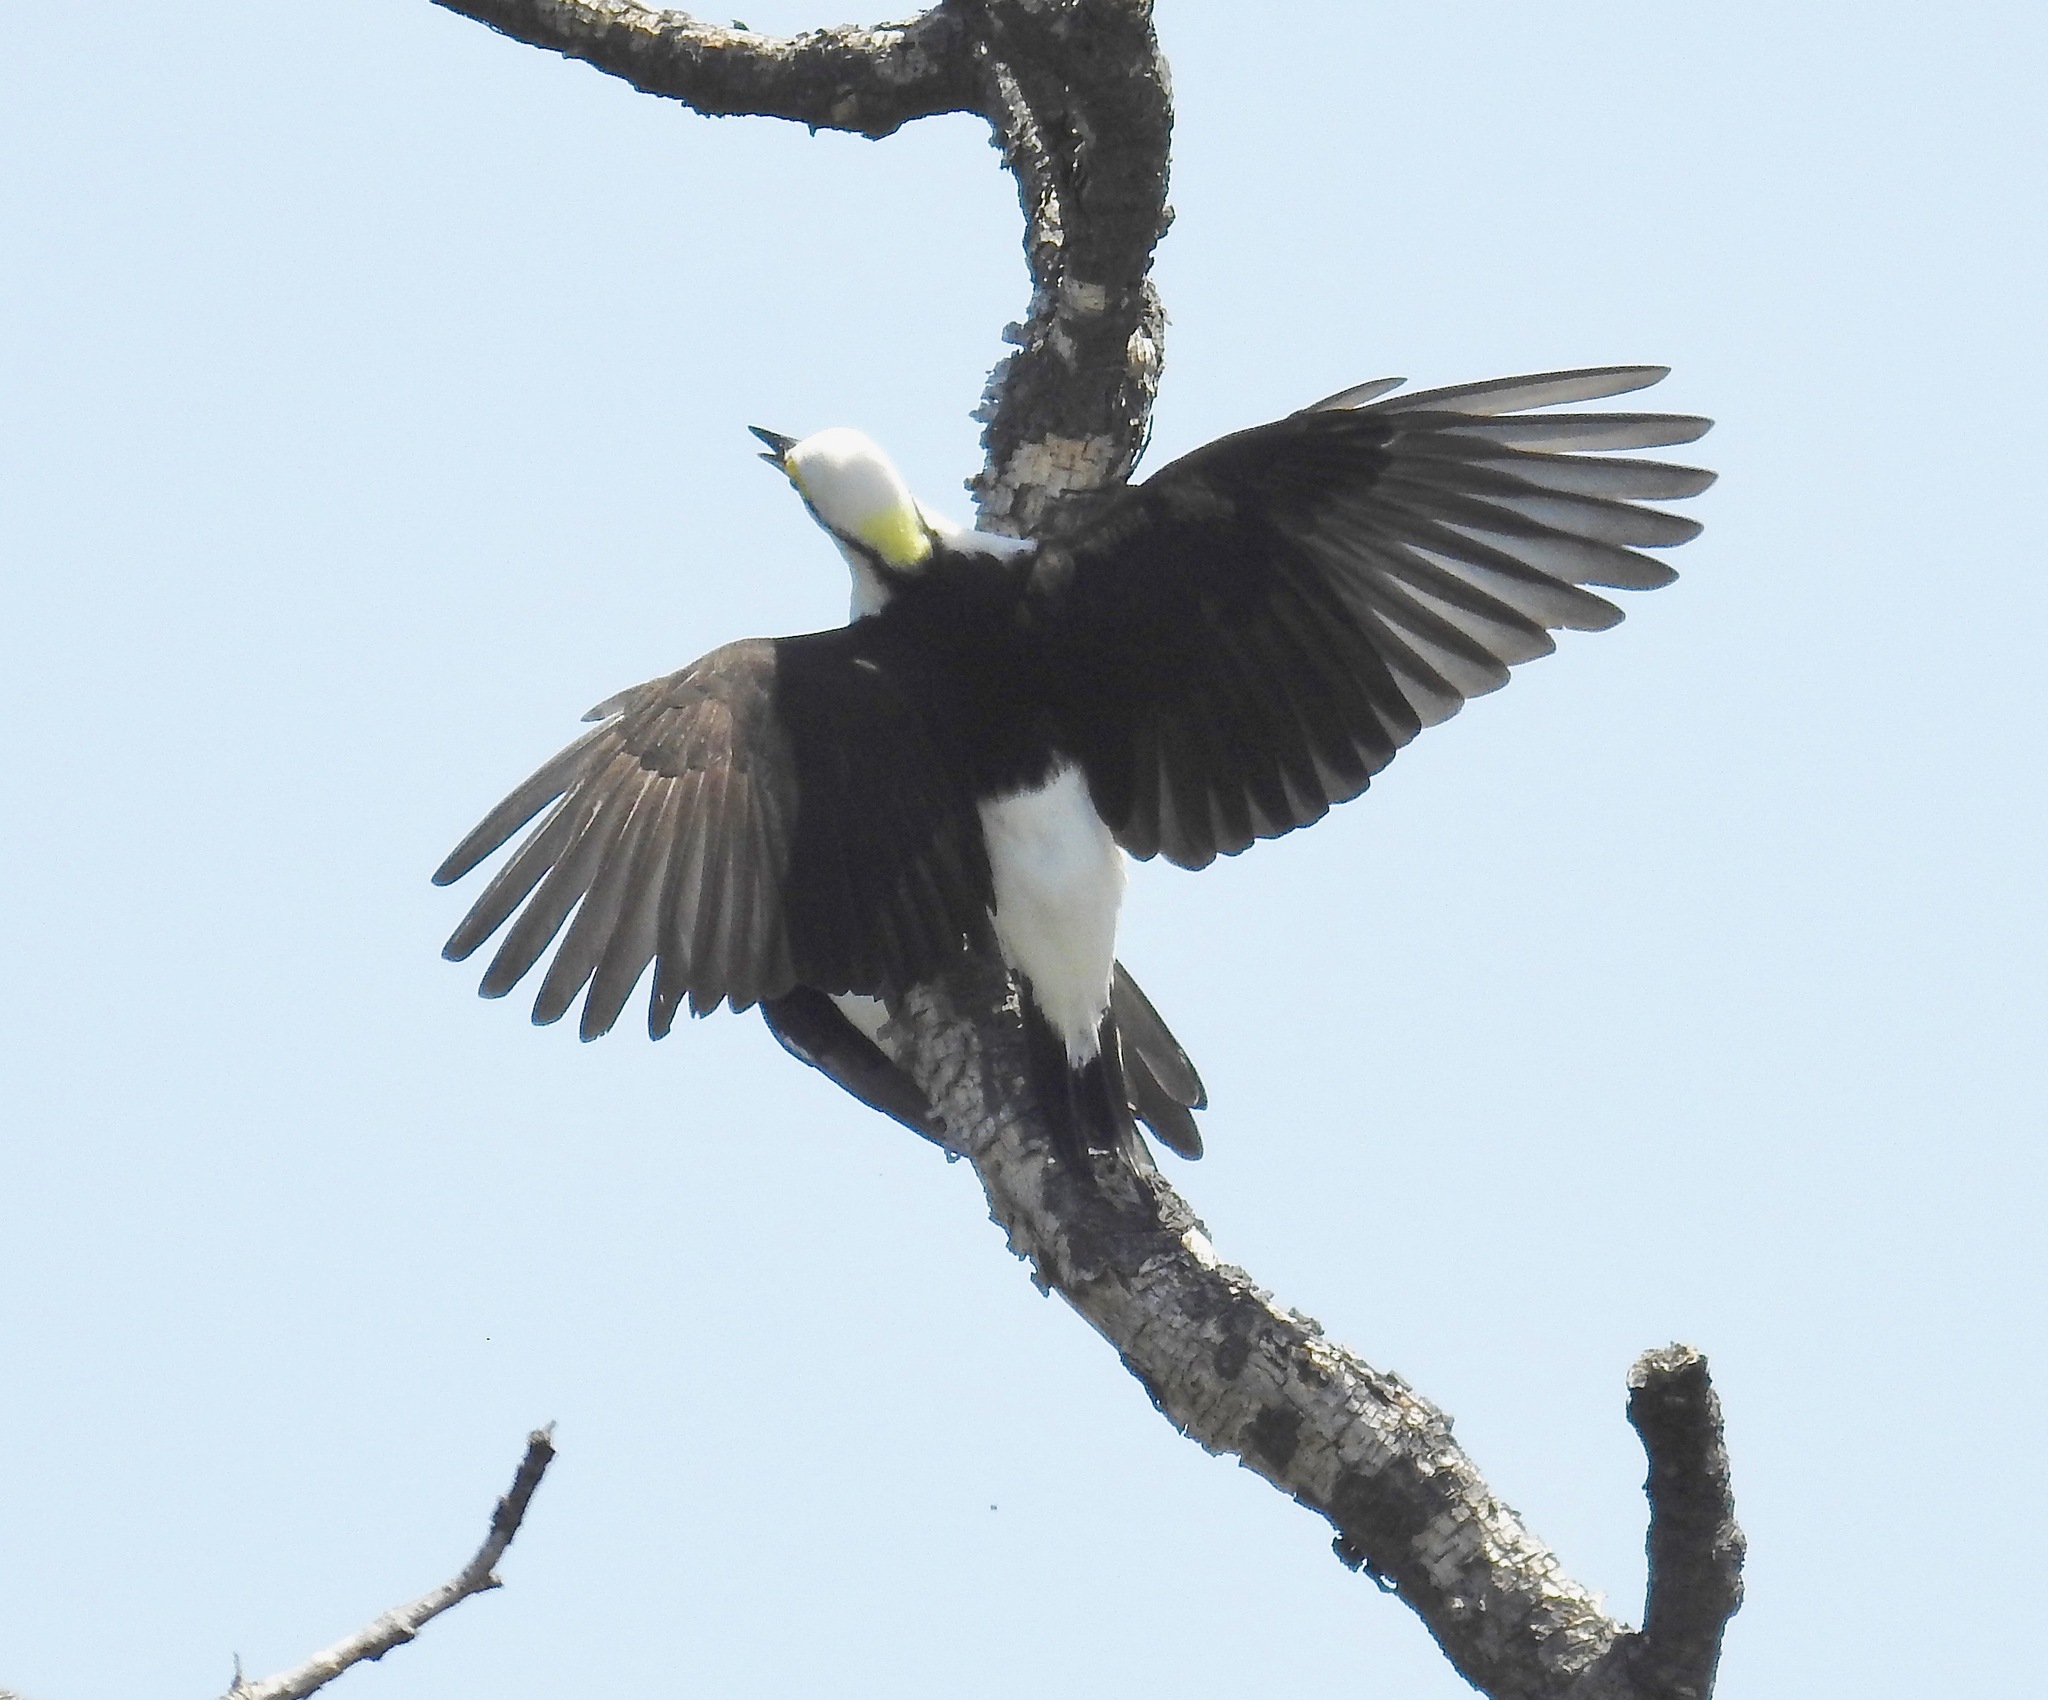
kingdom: Animalia
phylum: Chordata
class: Aves
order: Piciformes
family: Picidae
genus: Melanerpes
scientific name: Melanerpes candidus
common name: White woodpecker
